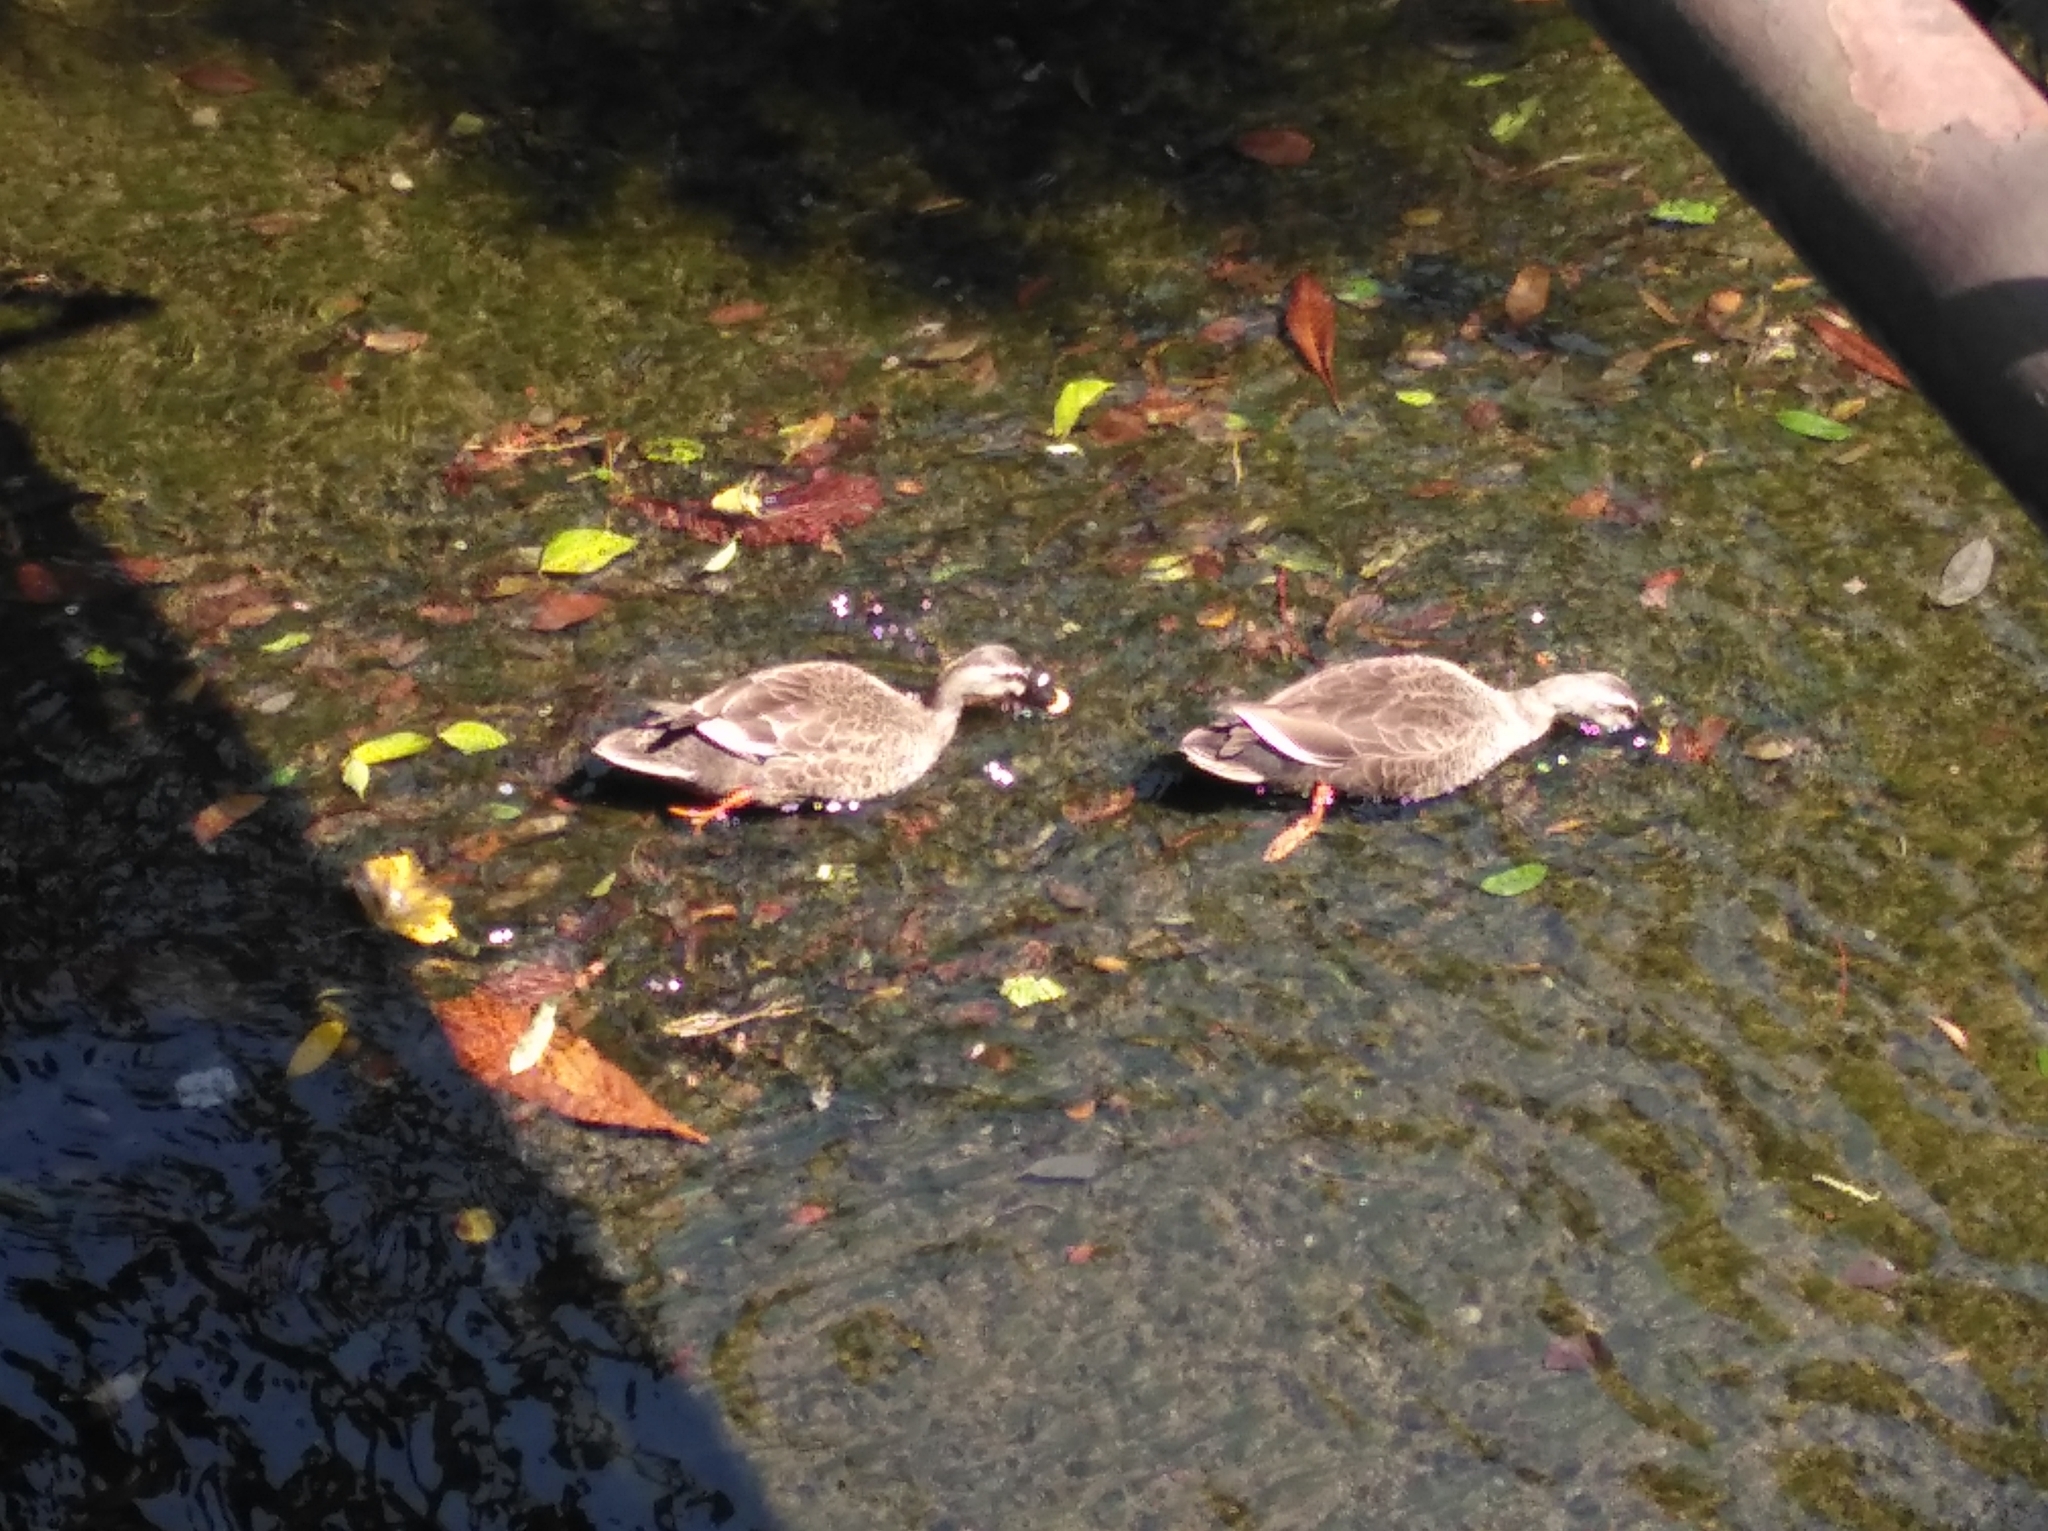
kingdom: Animalia
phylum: Chordata
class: Aves
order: Anseriformes
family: Anatidae
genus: Anas
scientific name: Anas zonorhyncha
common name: Eastern spot-billed duck
